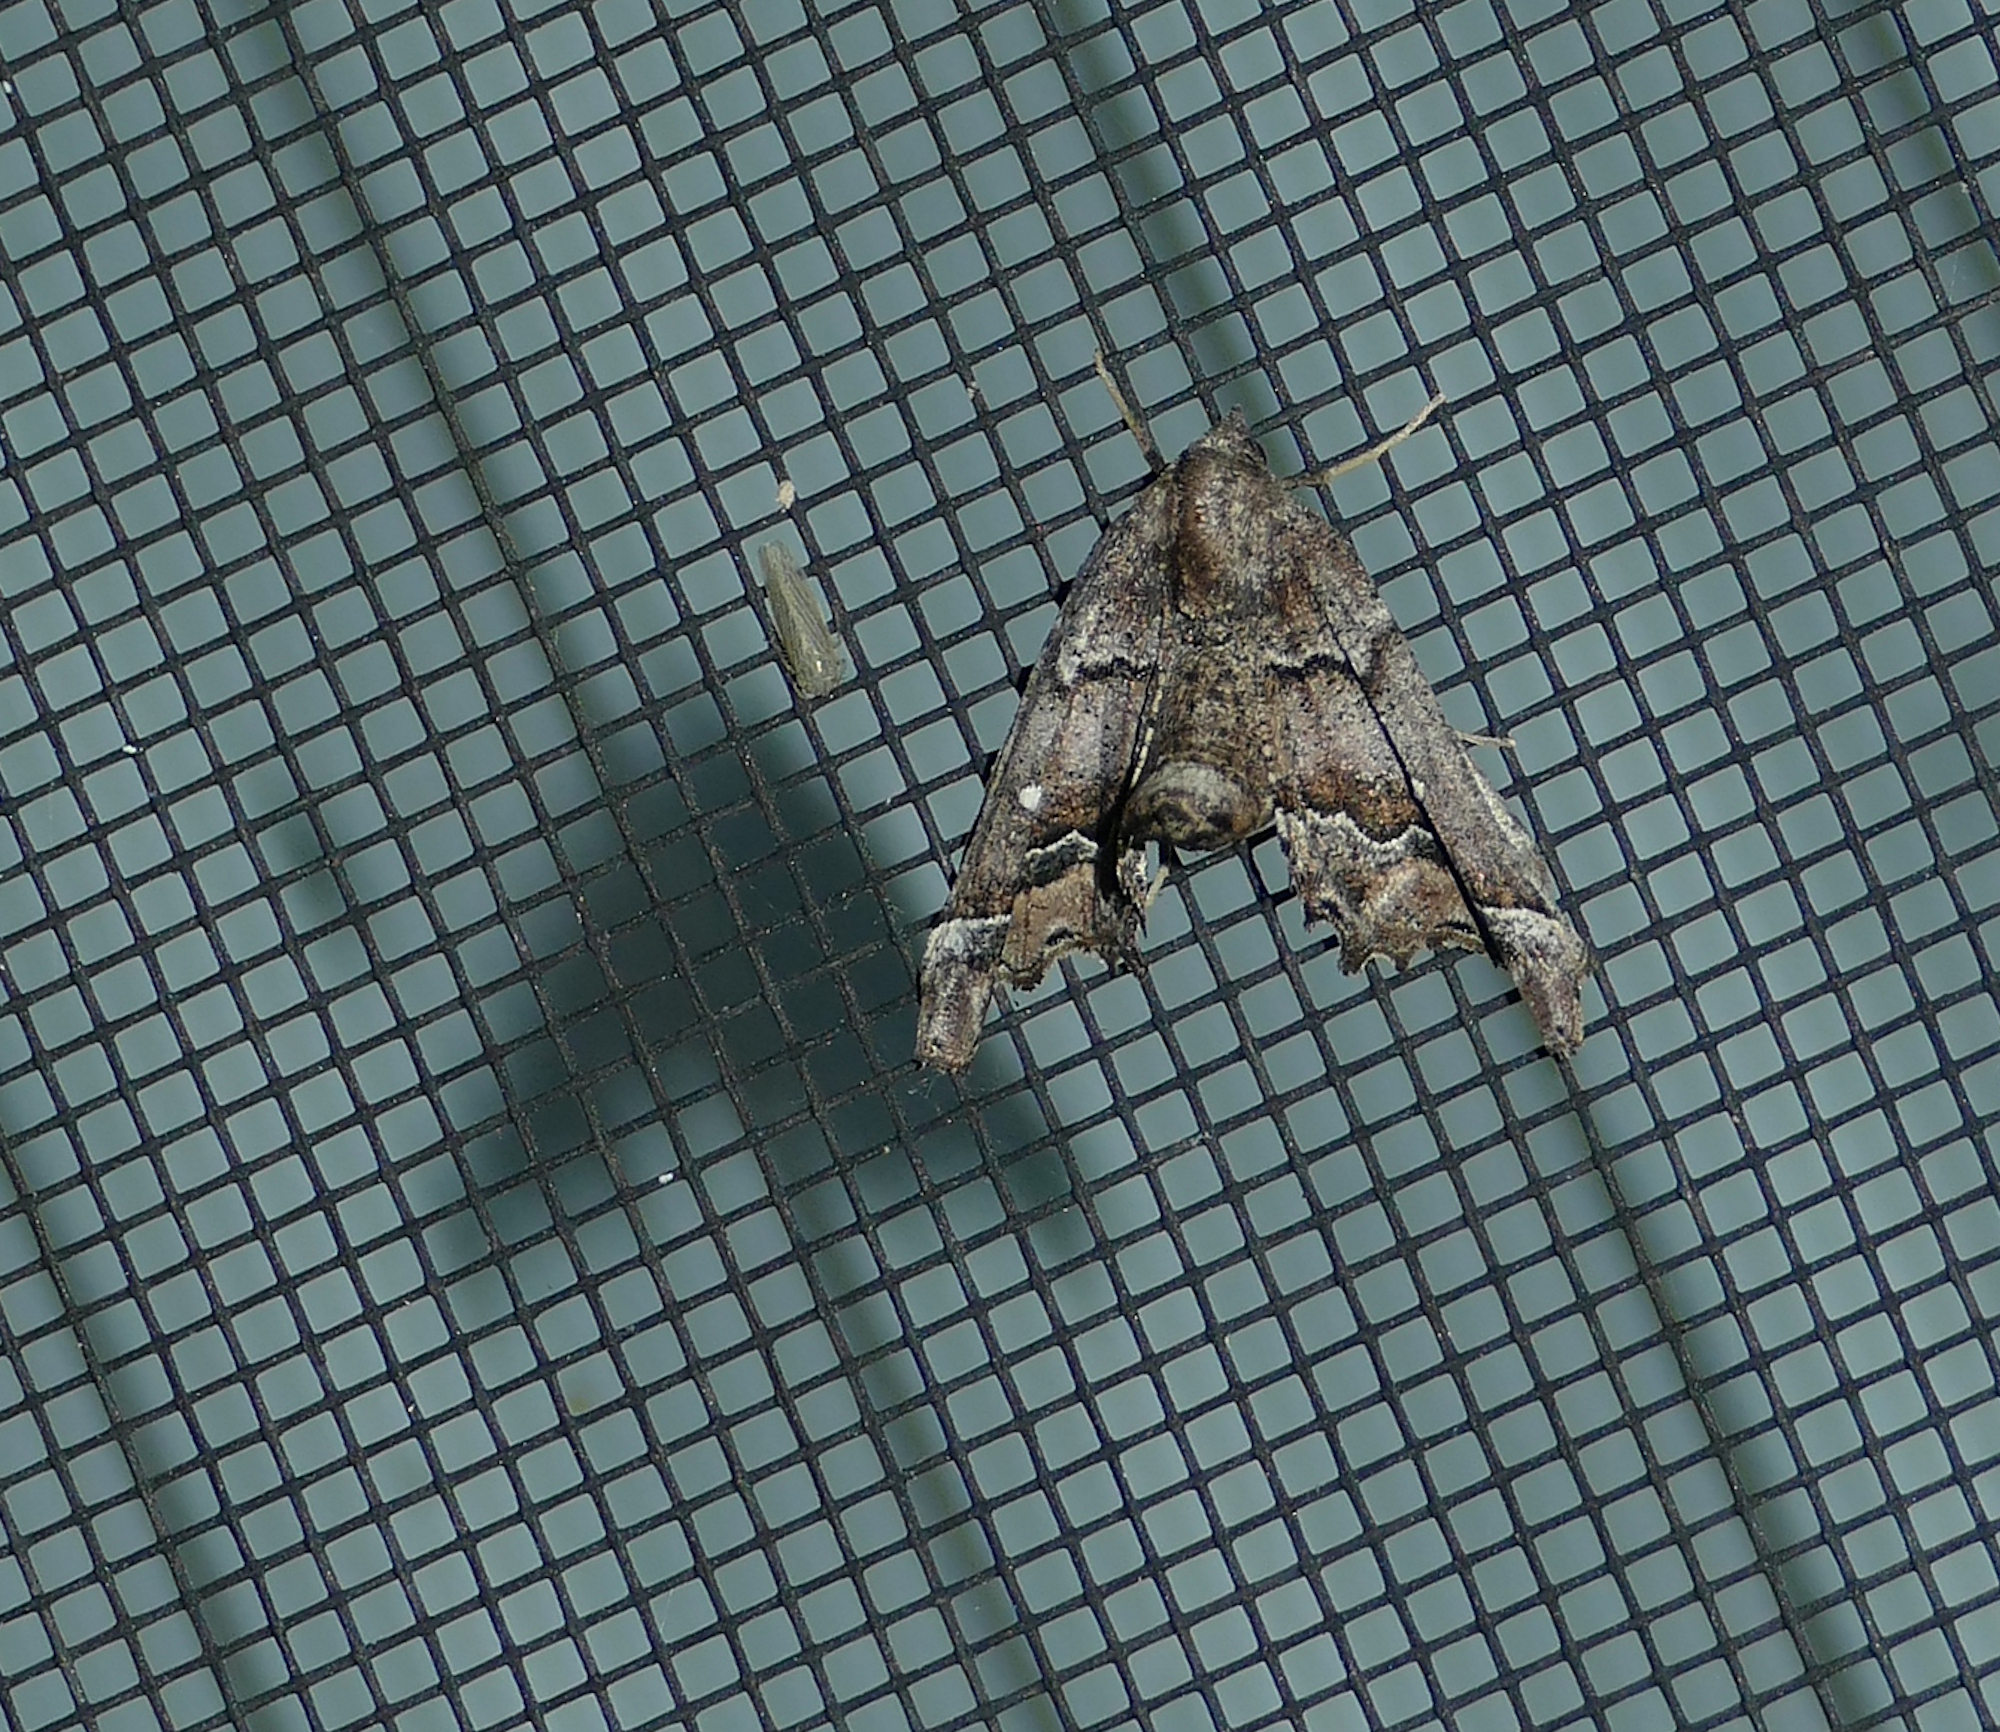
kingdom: Animalia
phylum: Arthropoda
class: Insecta
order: Lepidoptera
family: Geometridae
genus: Pero
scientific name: Pero meskaria
